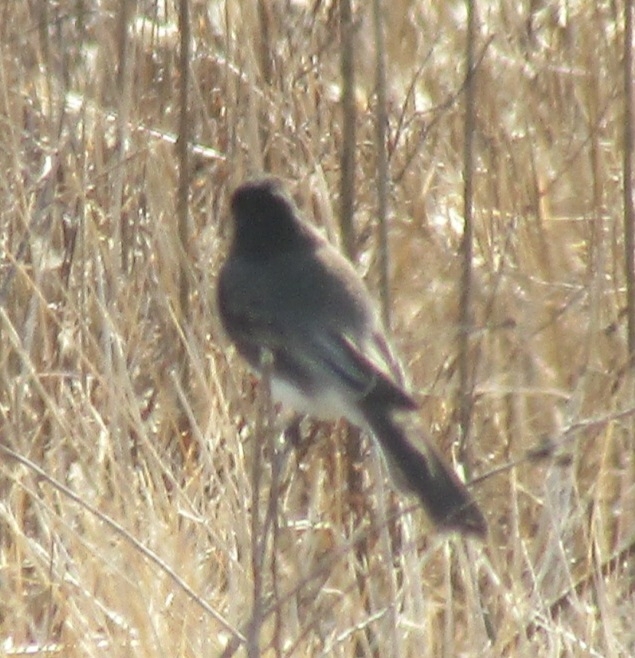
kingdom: Animalia
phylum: Chordata
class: Aves
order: Passeriformes
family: Tyrannidae
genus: Sayornis
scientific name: Sayornis nigricans
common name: Black phoebe
